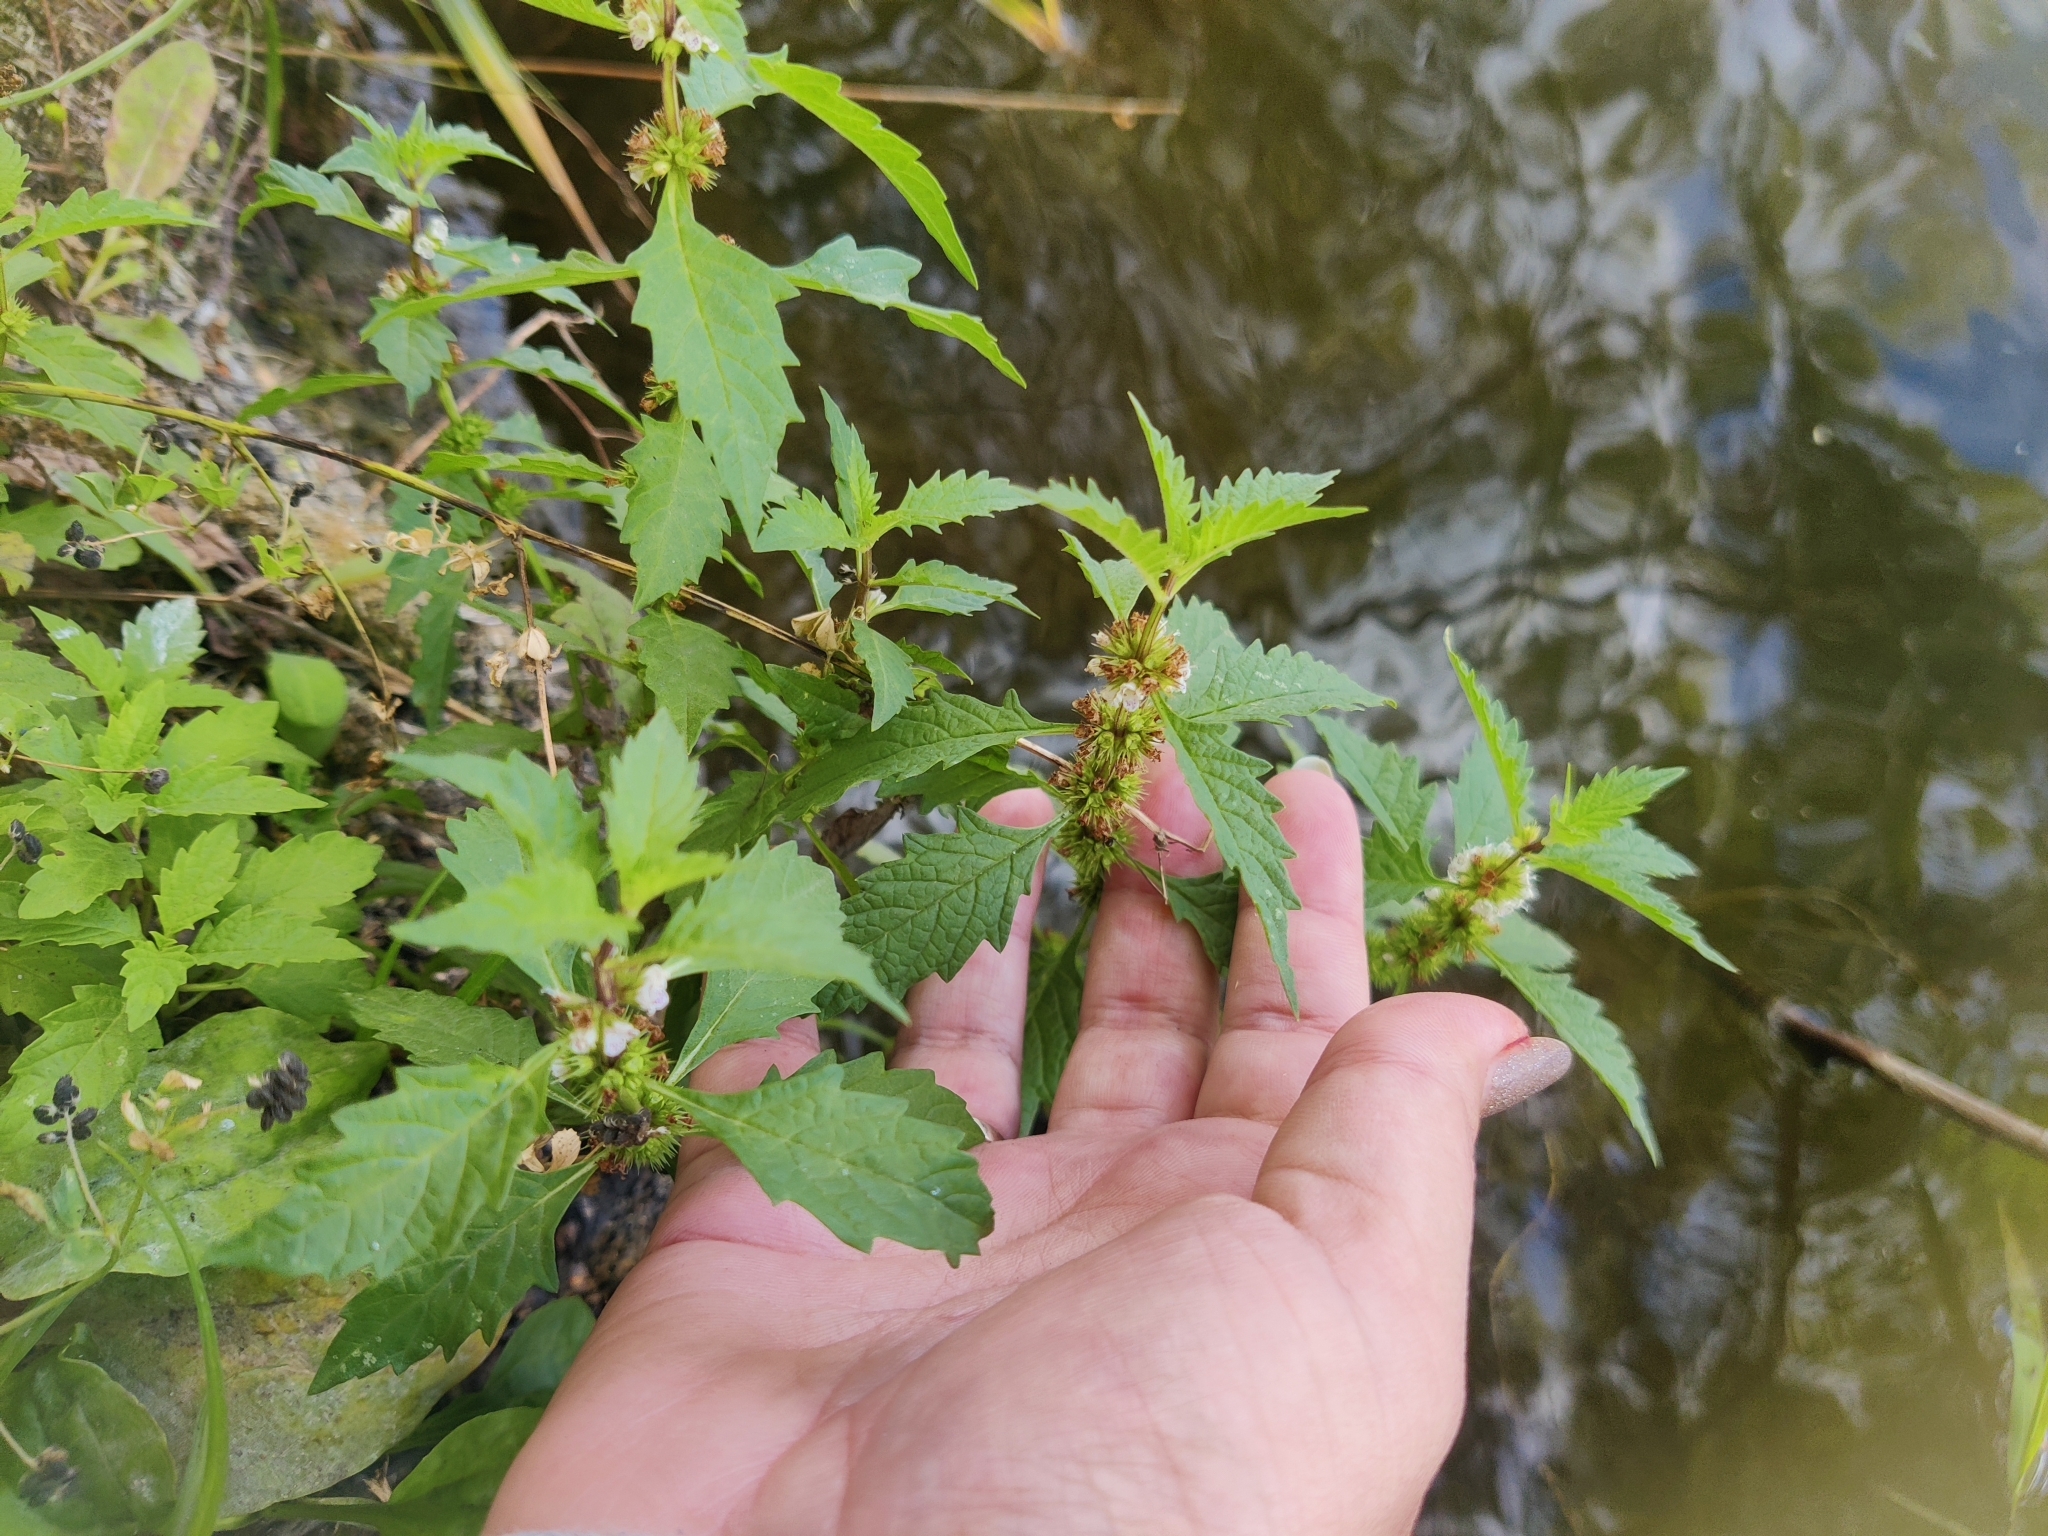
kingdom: Plantae
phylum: Tracheophyta
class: Magnoliopsida
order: Lamiales
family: Lamiaceae
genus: Lycopus
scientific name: Lycopus europaeus
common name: European bugleweed
